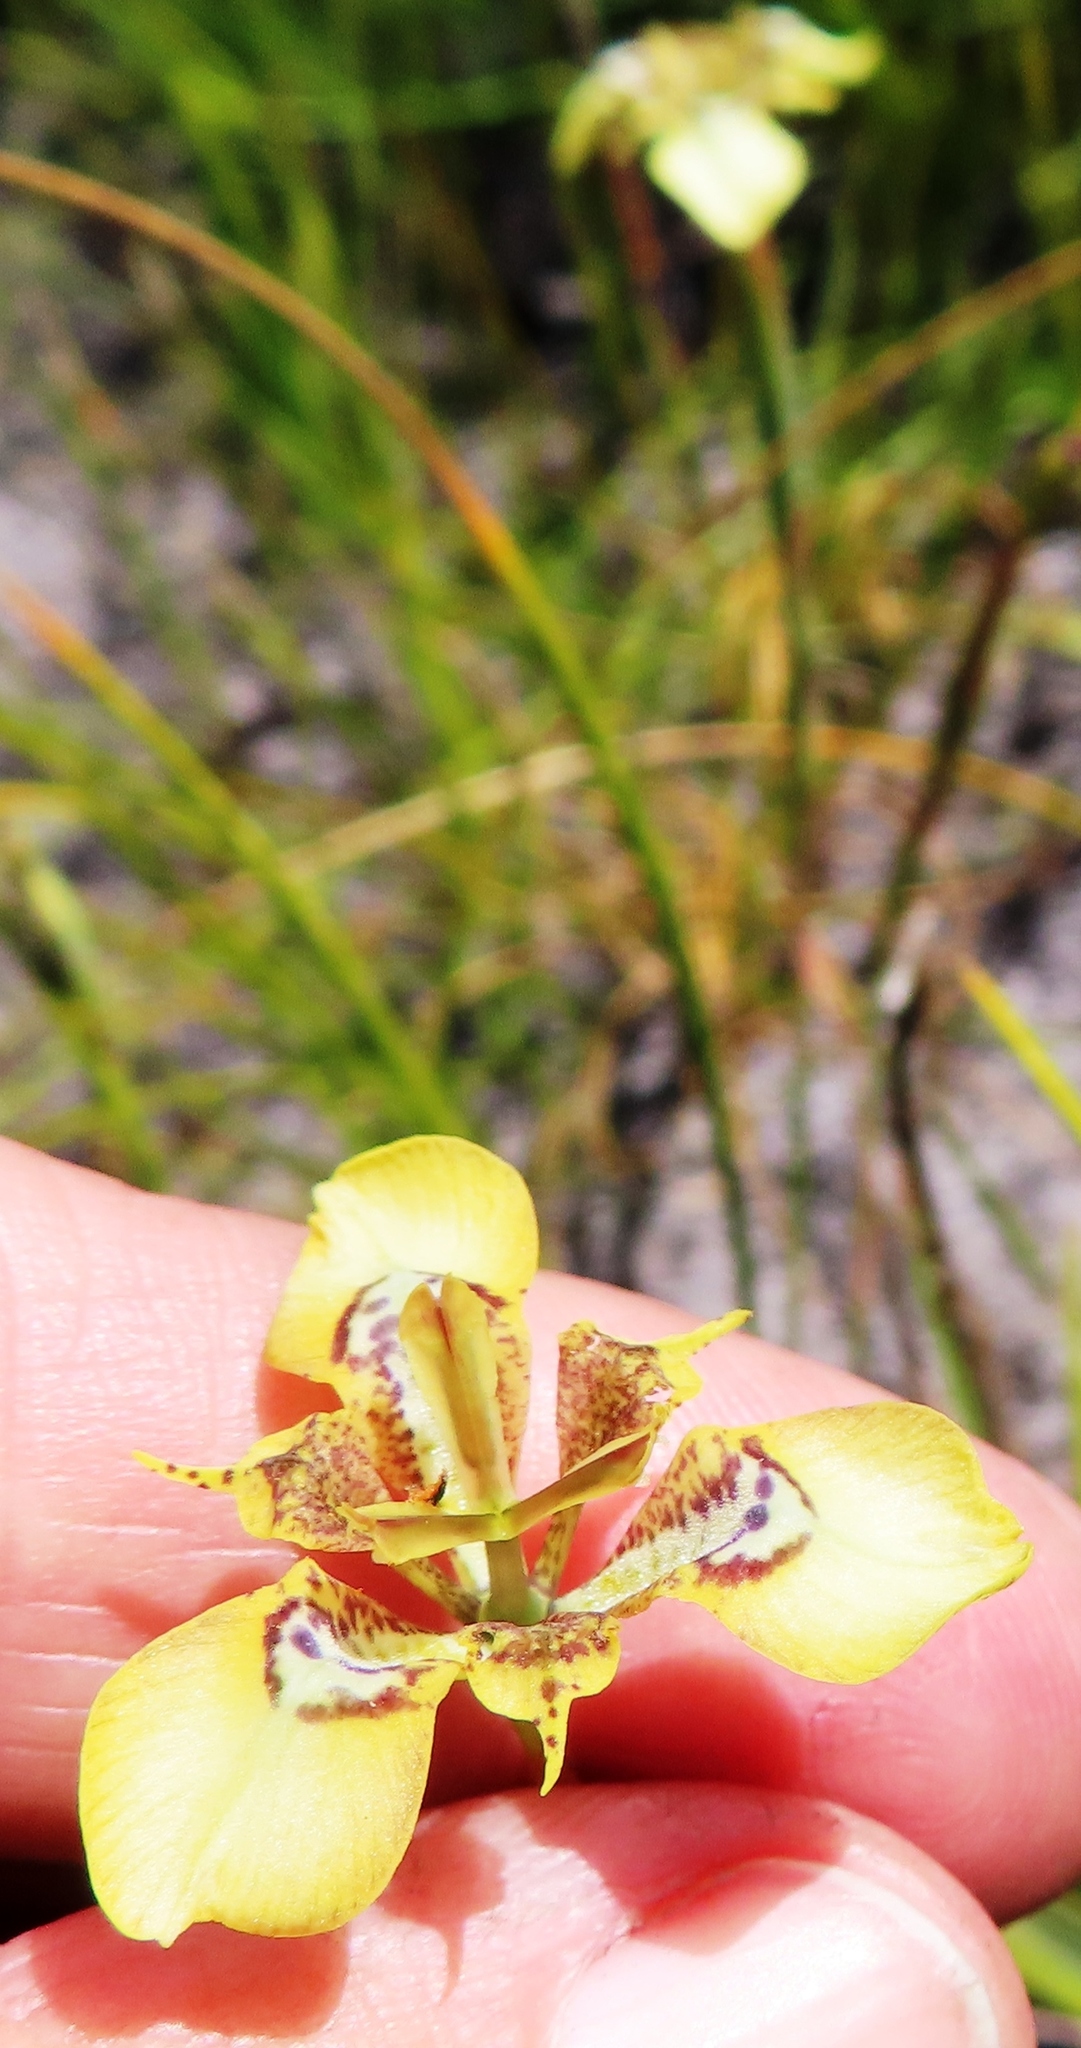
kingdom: Plantae
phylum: Tracheophyta
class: Liliopsida
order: Asparagales
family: Iridaceae
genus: Moraea
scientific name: Moraea lurida
